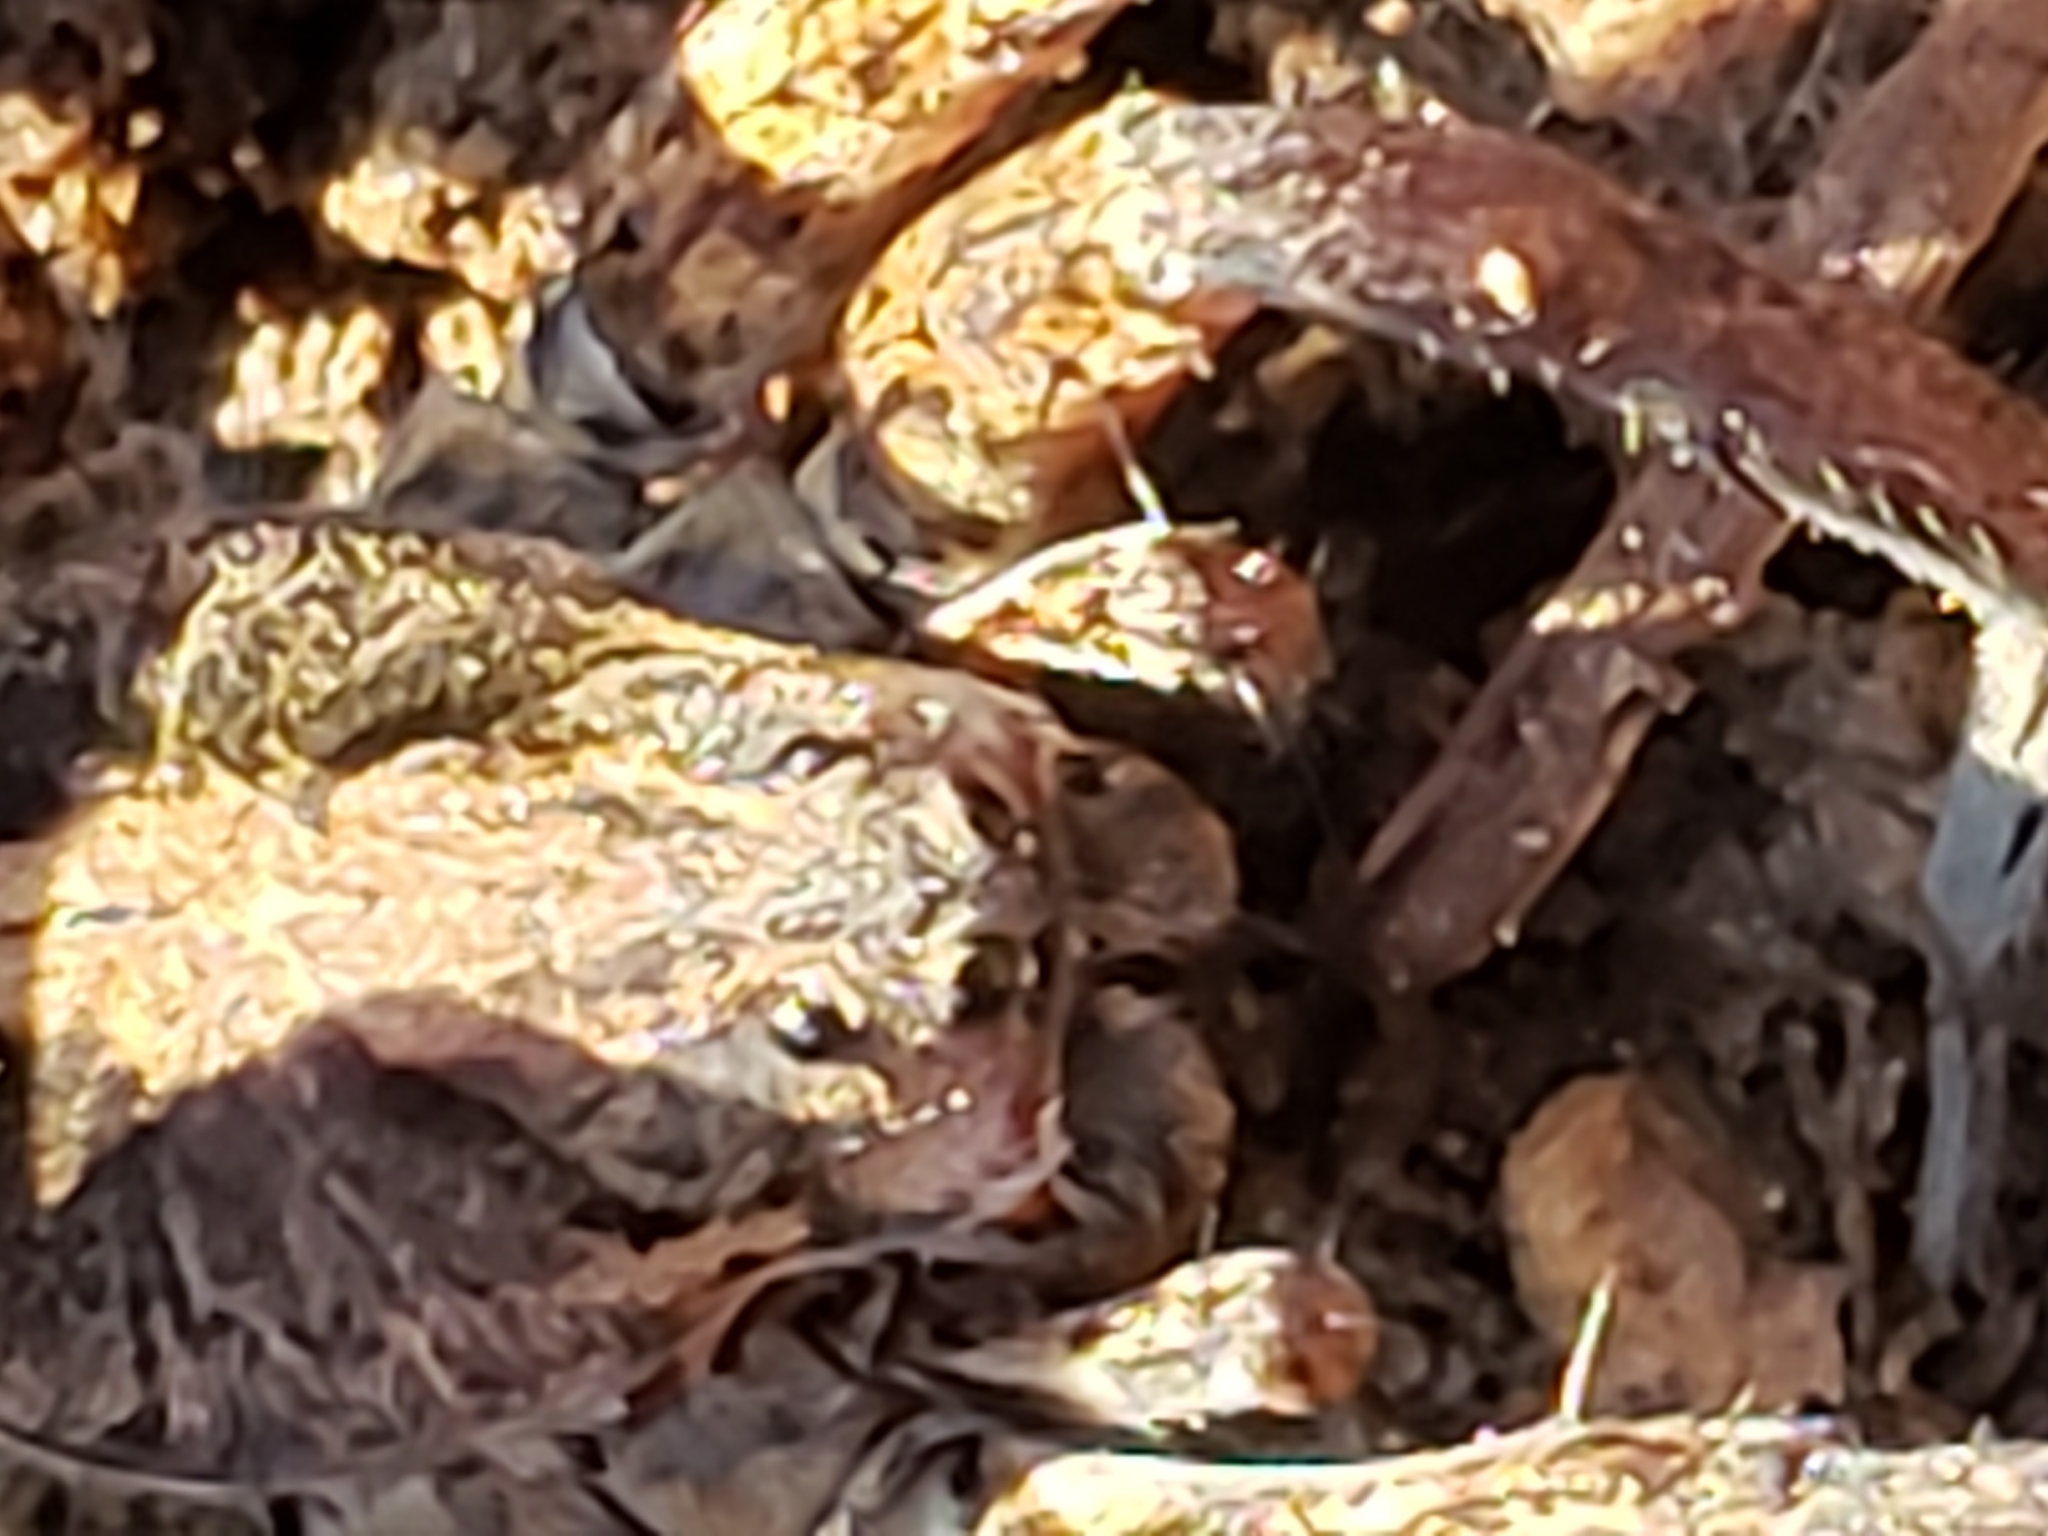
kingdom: Animalia
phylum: Arthropoda
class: Arachnida
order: Araneae
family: Lycosidae
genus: Gladicosa
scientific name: Gladicosa gulosa
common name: Drumming sword wolf spider
